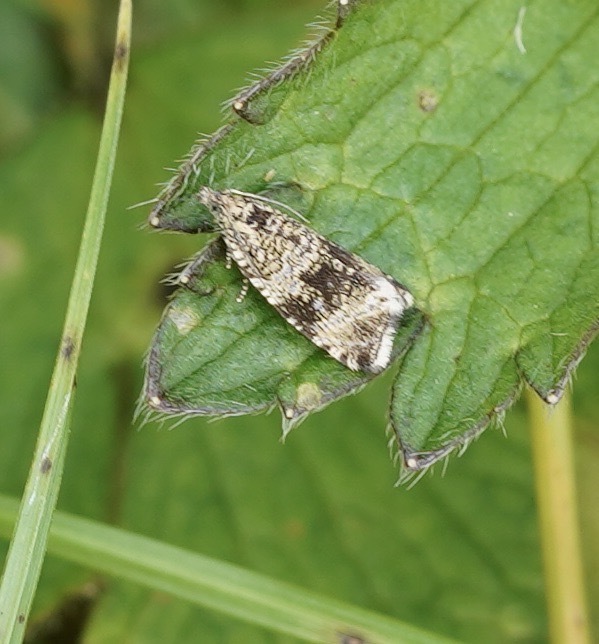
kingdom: Animalia
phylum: Arthropoda
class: Insecta
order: Lepidoptera
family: Tortricidae
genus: Syricoris
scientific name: Syricoris lacunana
